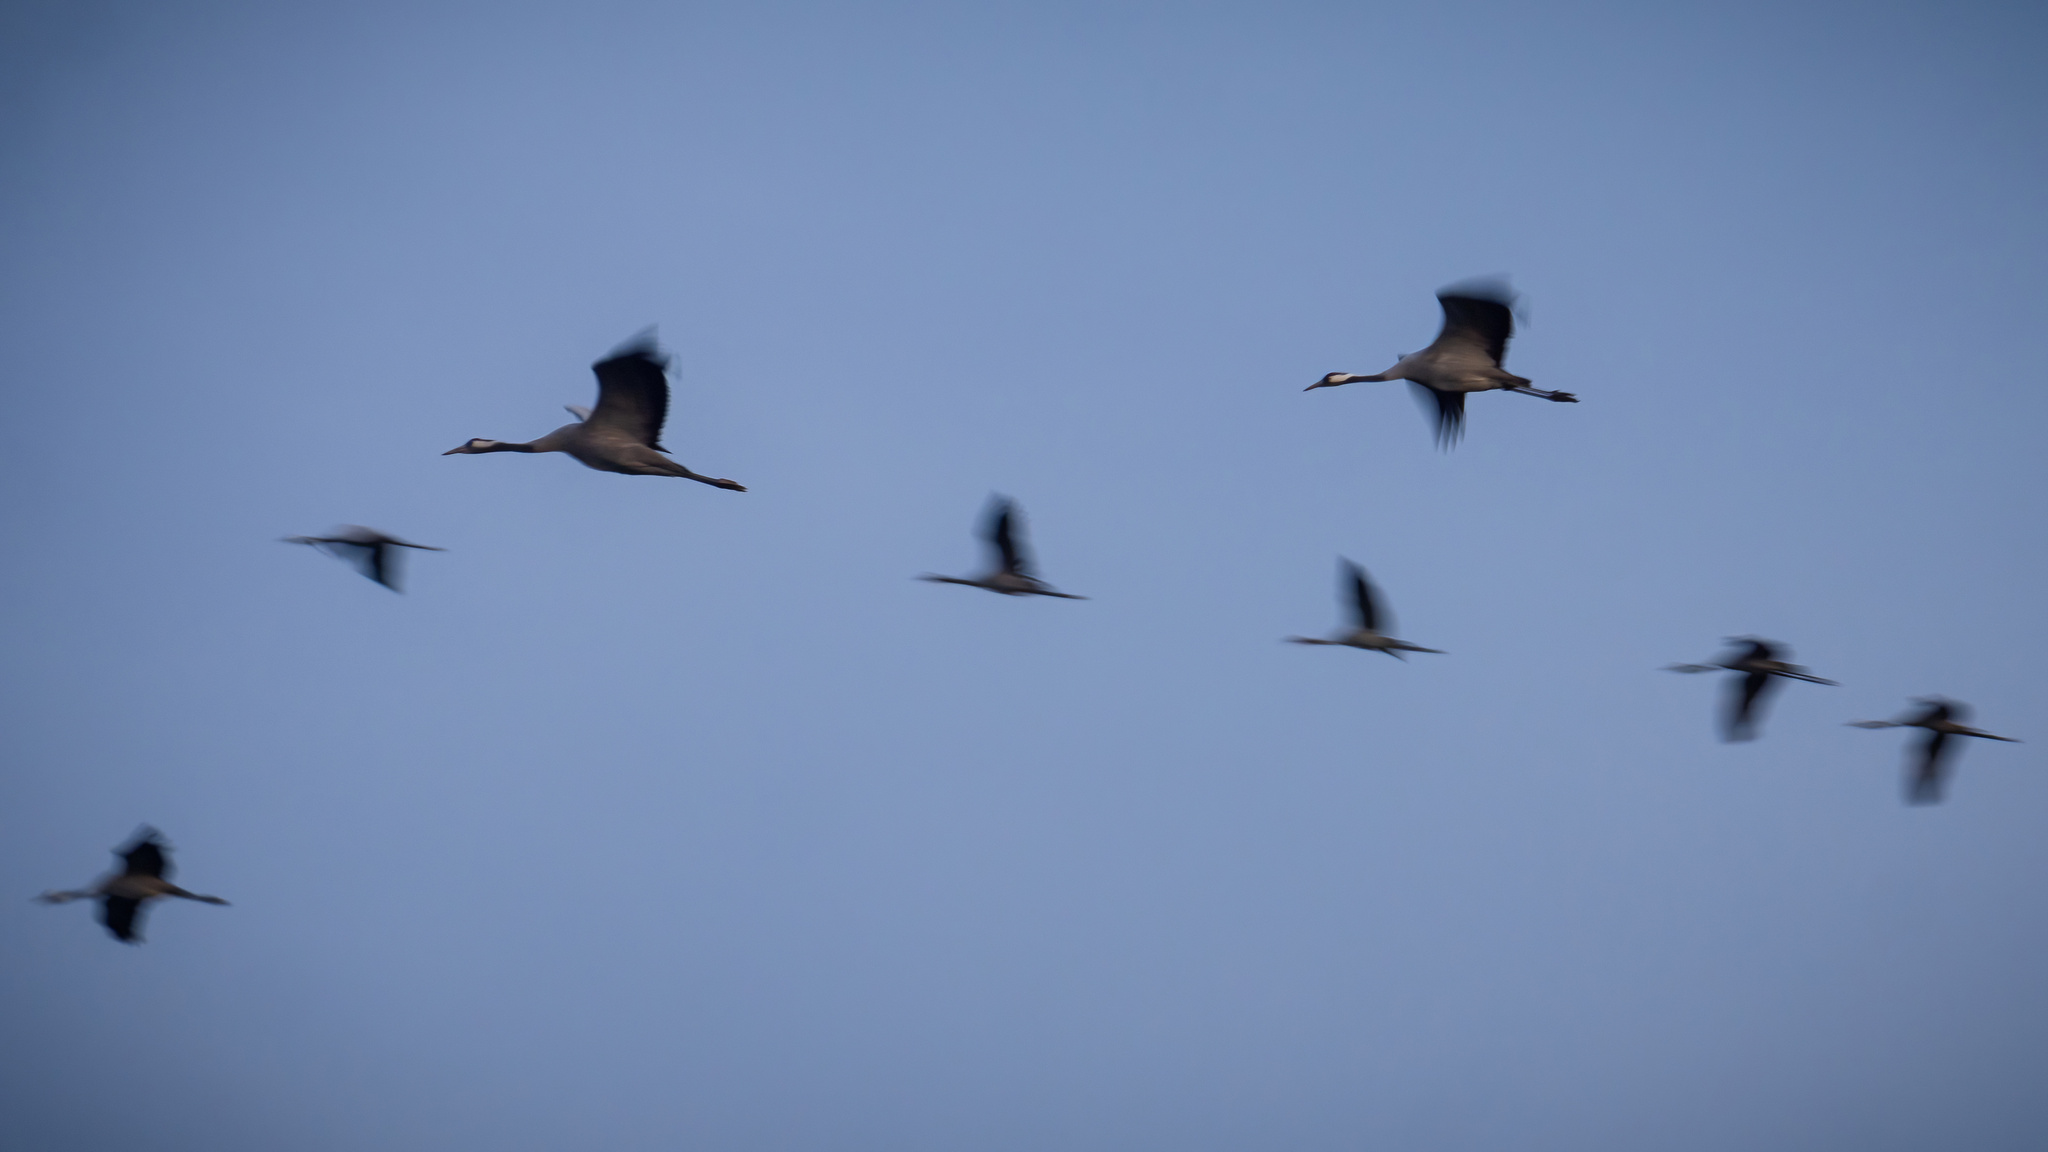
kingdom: Animalia
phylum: Chordata
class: Aves
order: Gruiformes
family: Gruidae
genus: Grus
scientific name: Grus grus
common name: Common crane
